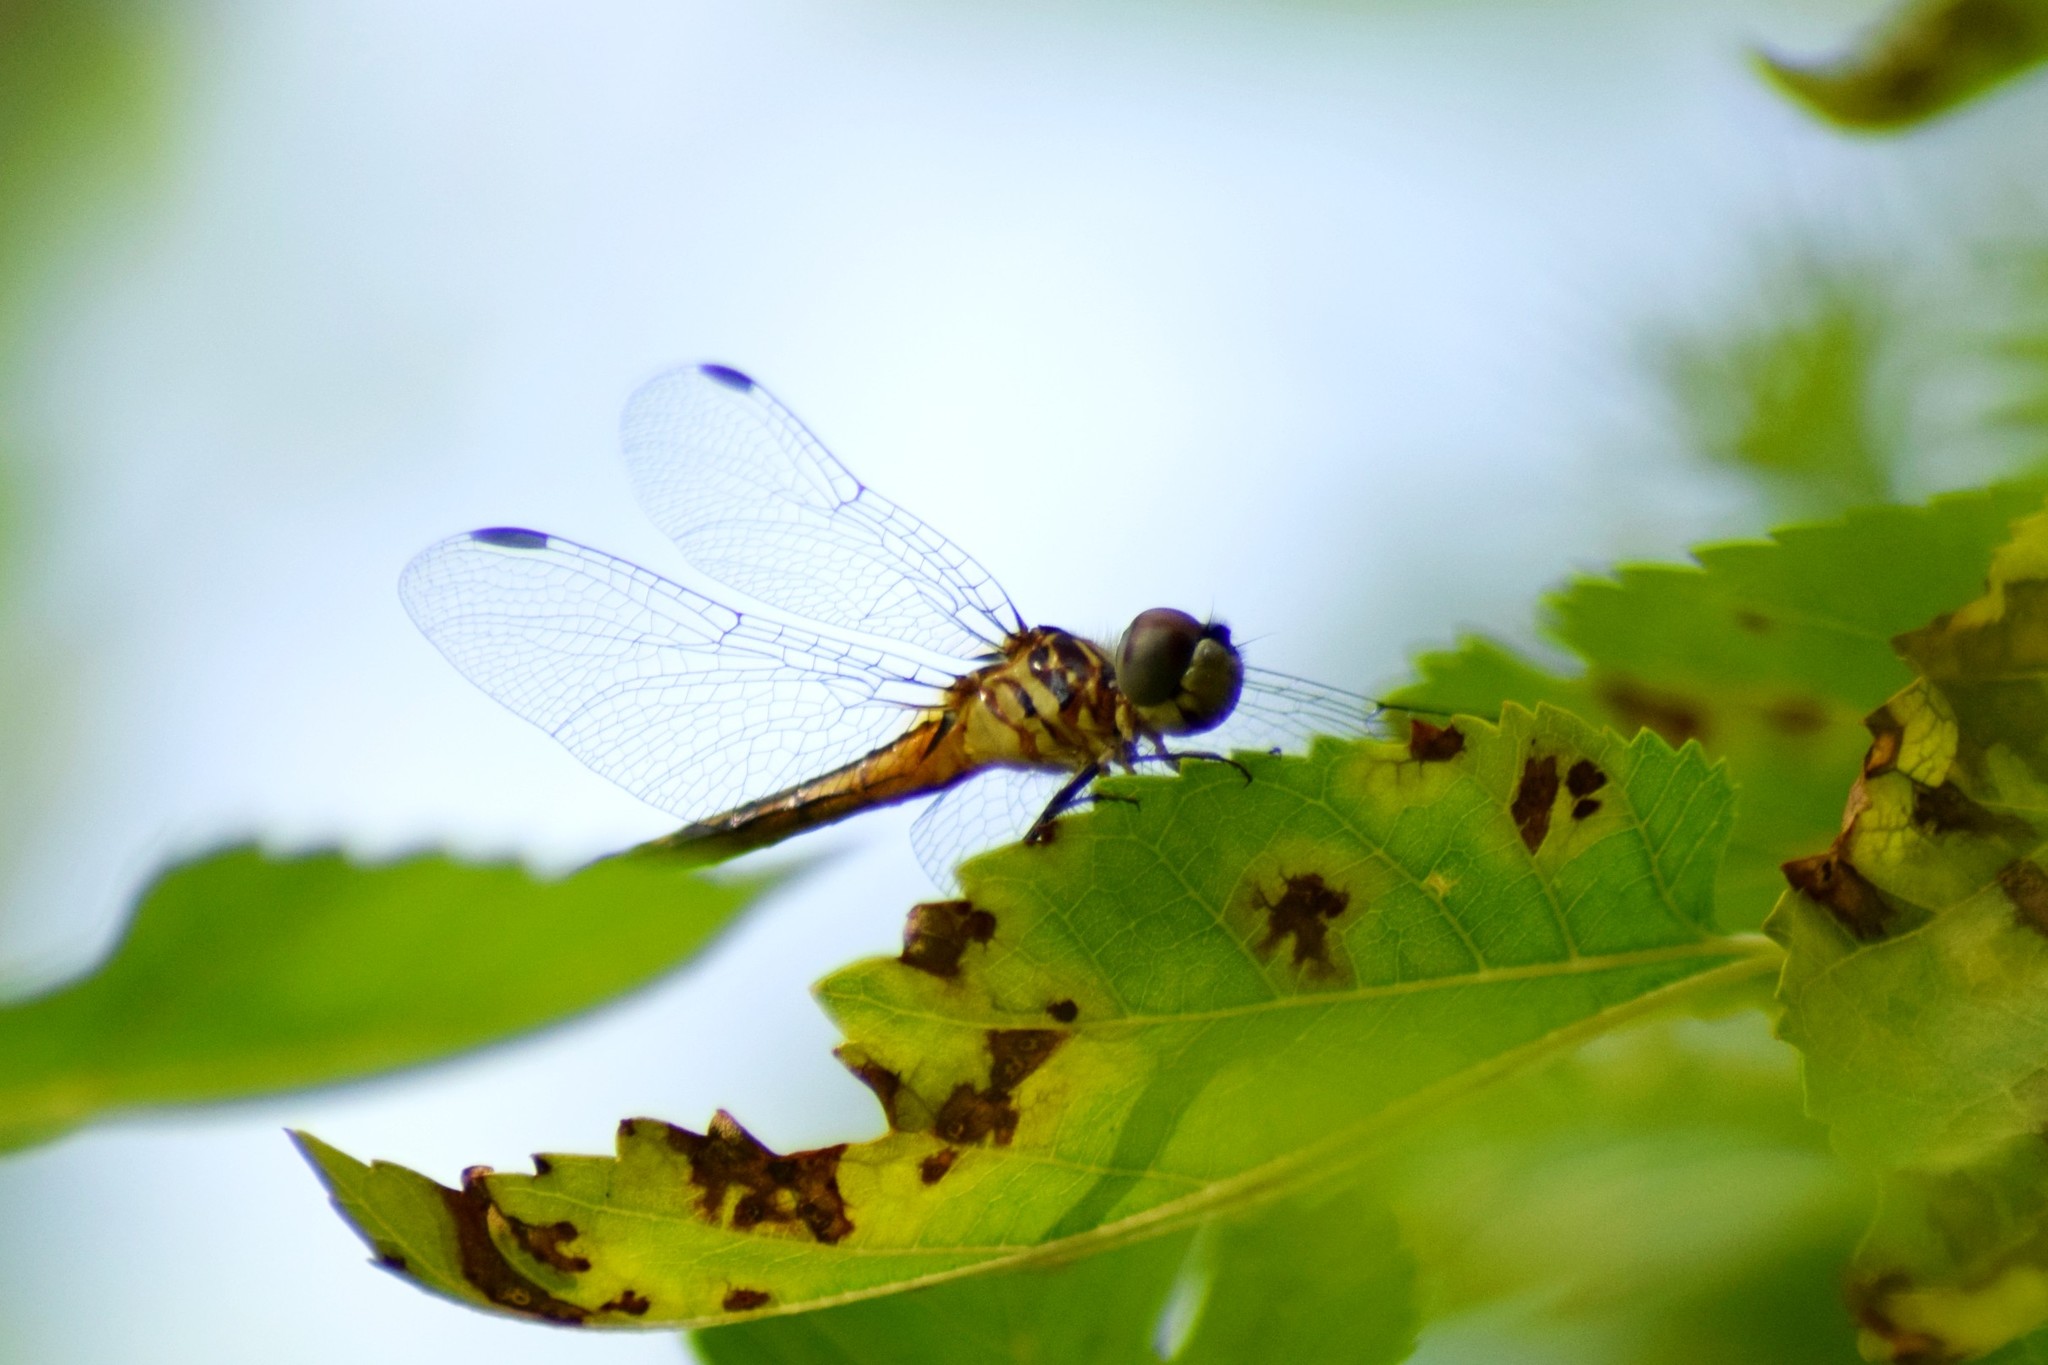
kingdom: Animalia
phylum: Arthropoda
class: Insecta
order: Odonata
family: Libellulidae
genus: Pachydiplax
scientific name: Pachydiplax longipennis
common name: Blue dasher
